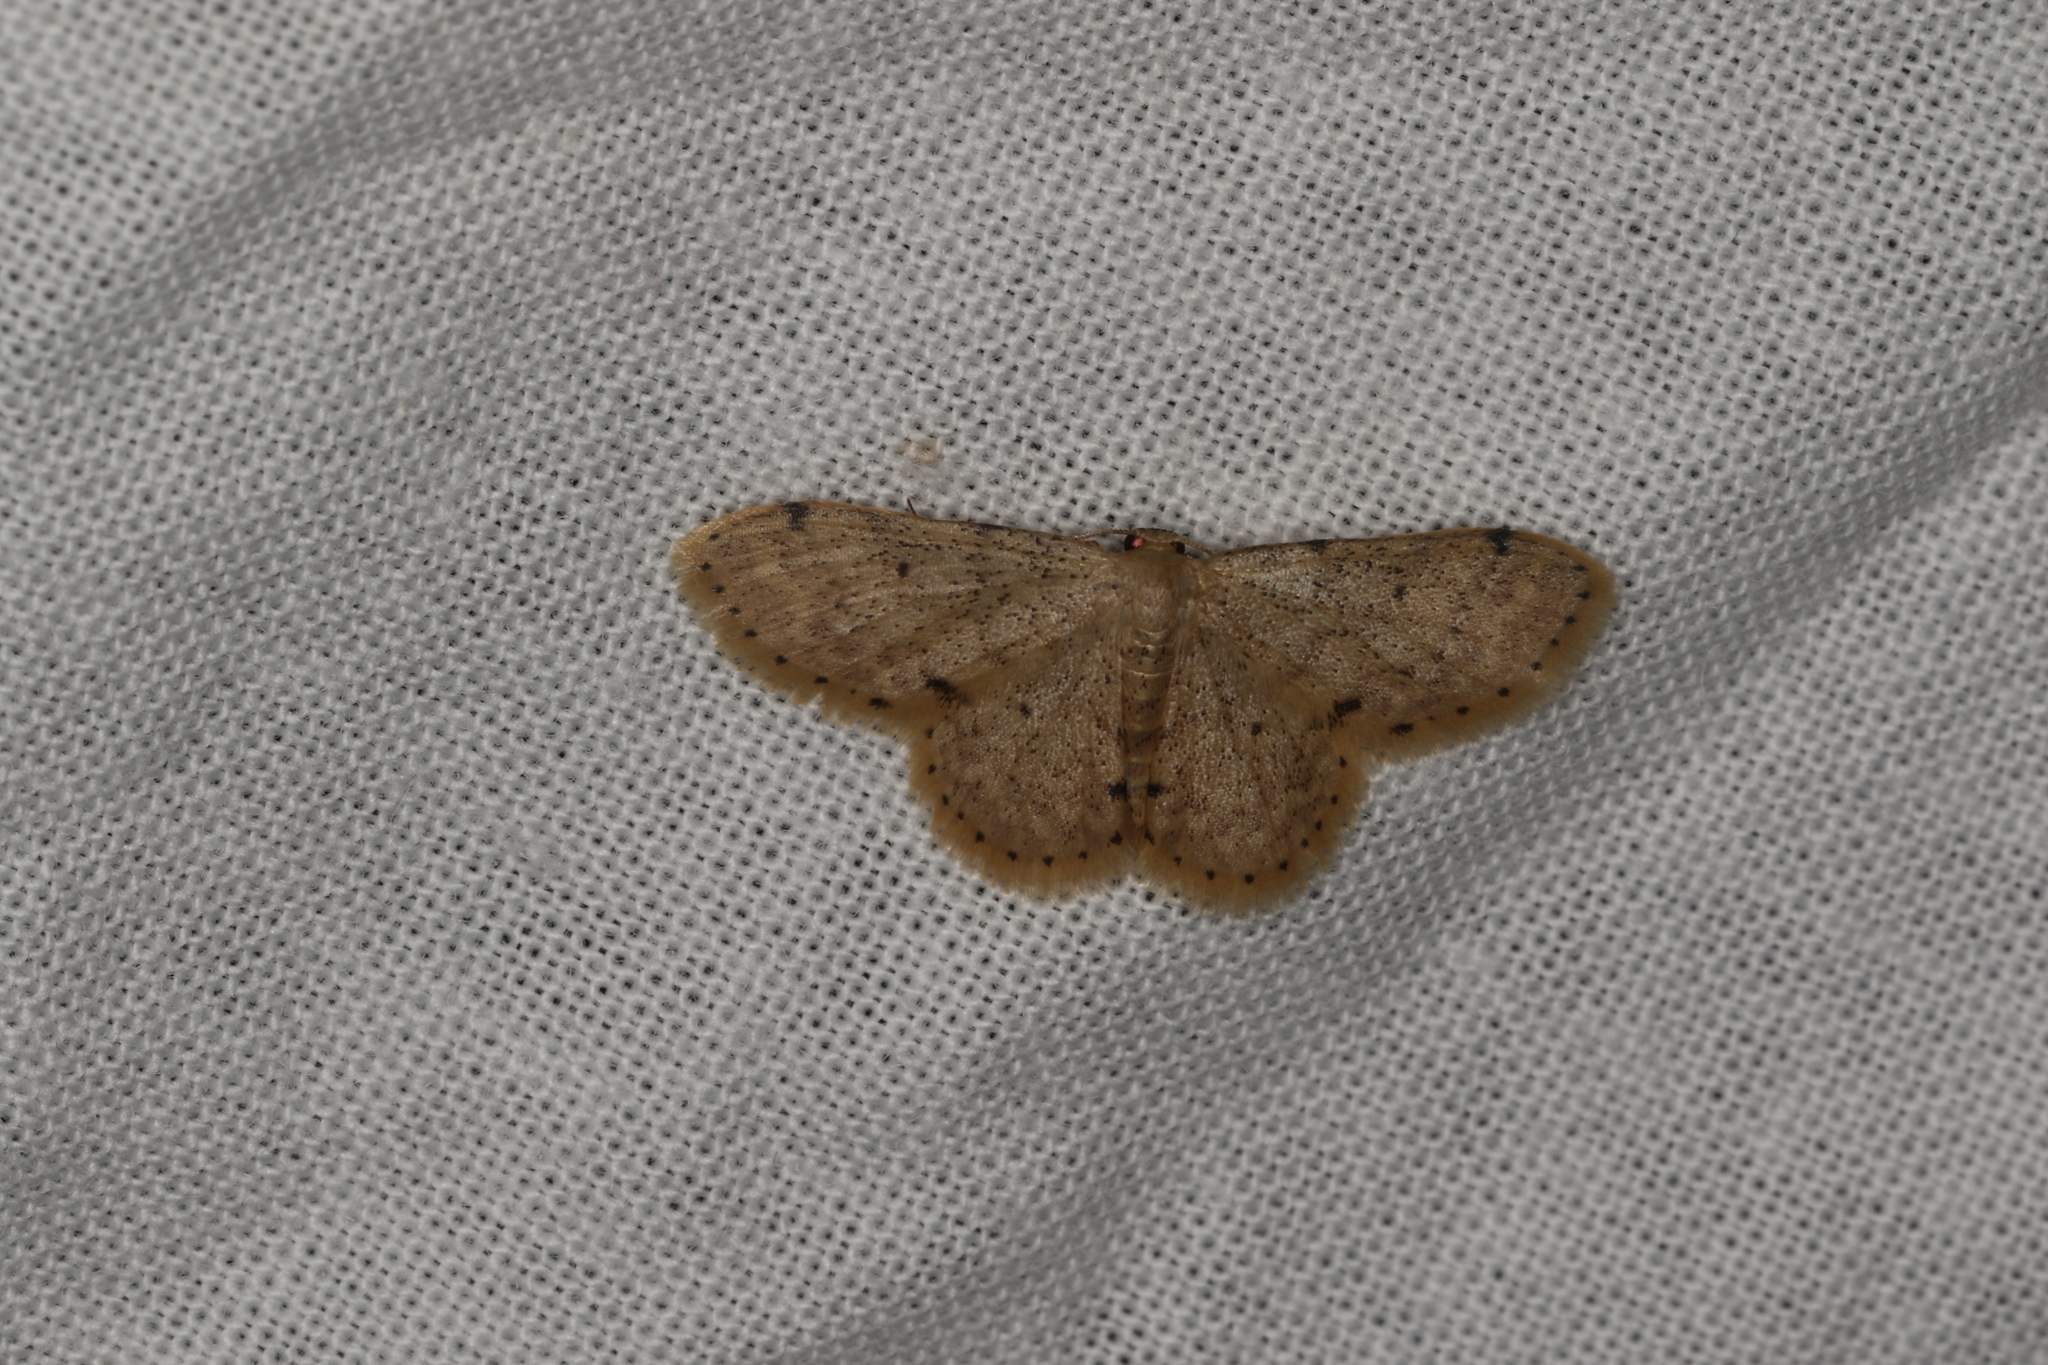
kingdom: Animalia
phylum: Arthropoda
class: Insecta
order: Lepidoptera
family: Geometridae
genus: Idaea
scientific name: Idaea pilosata
